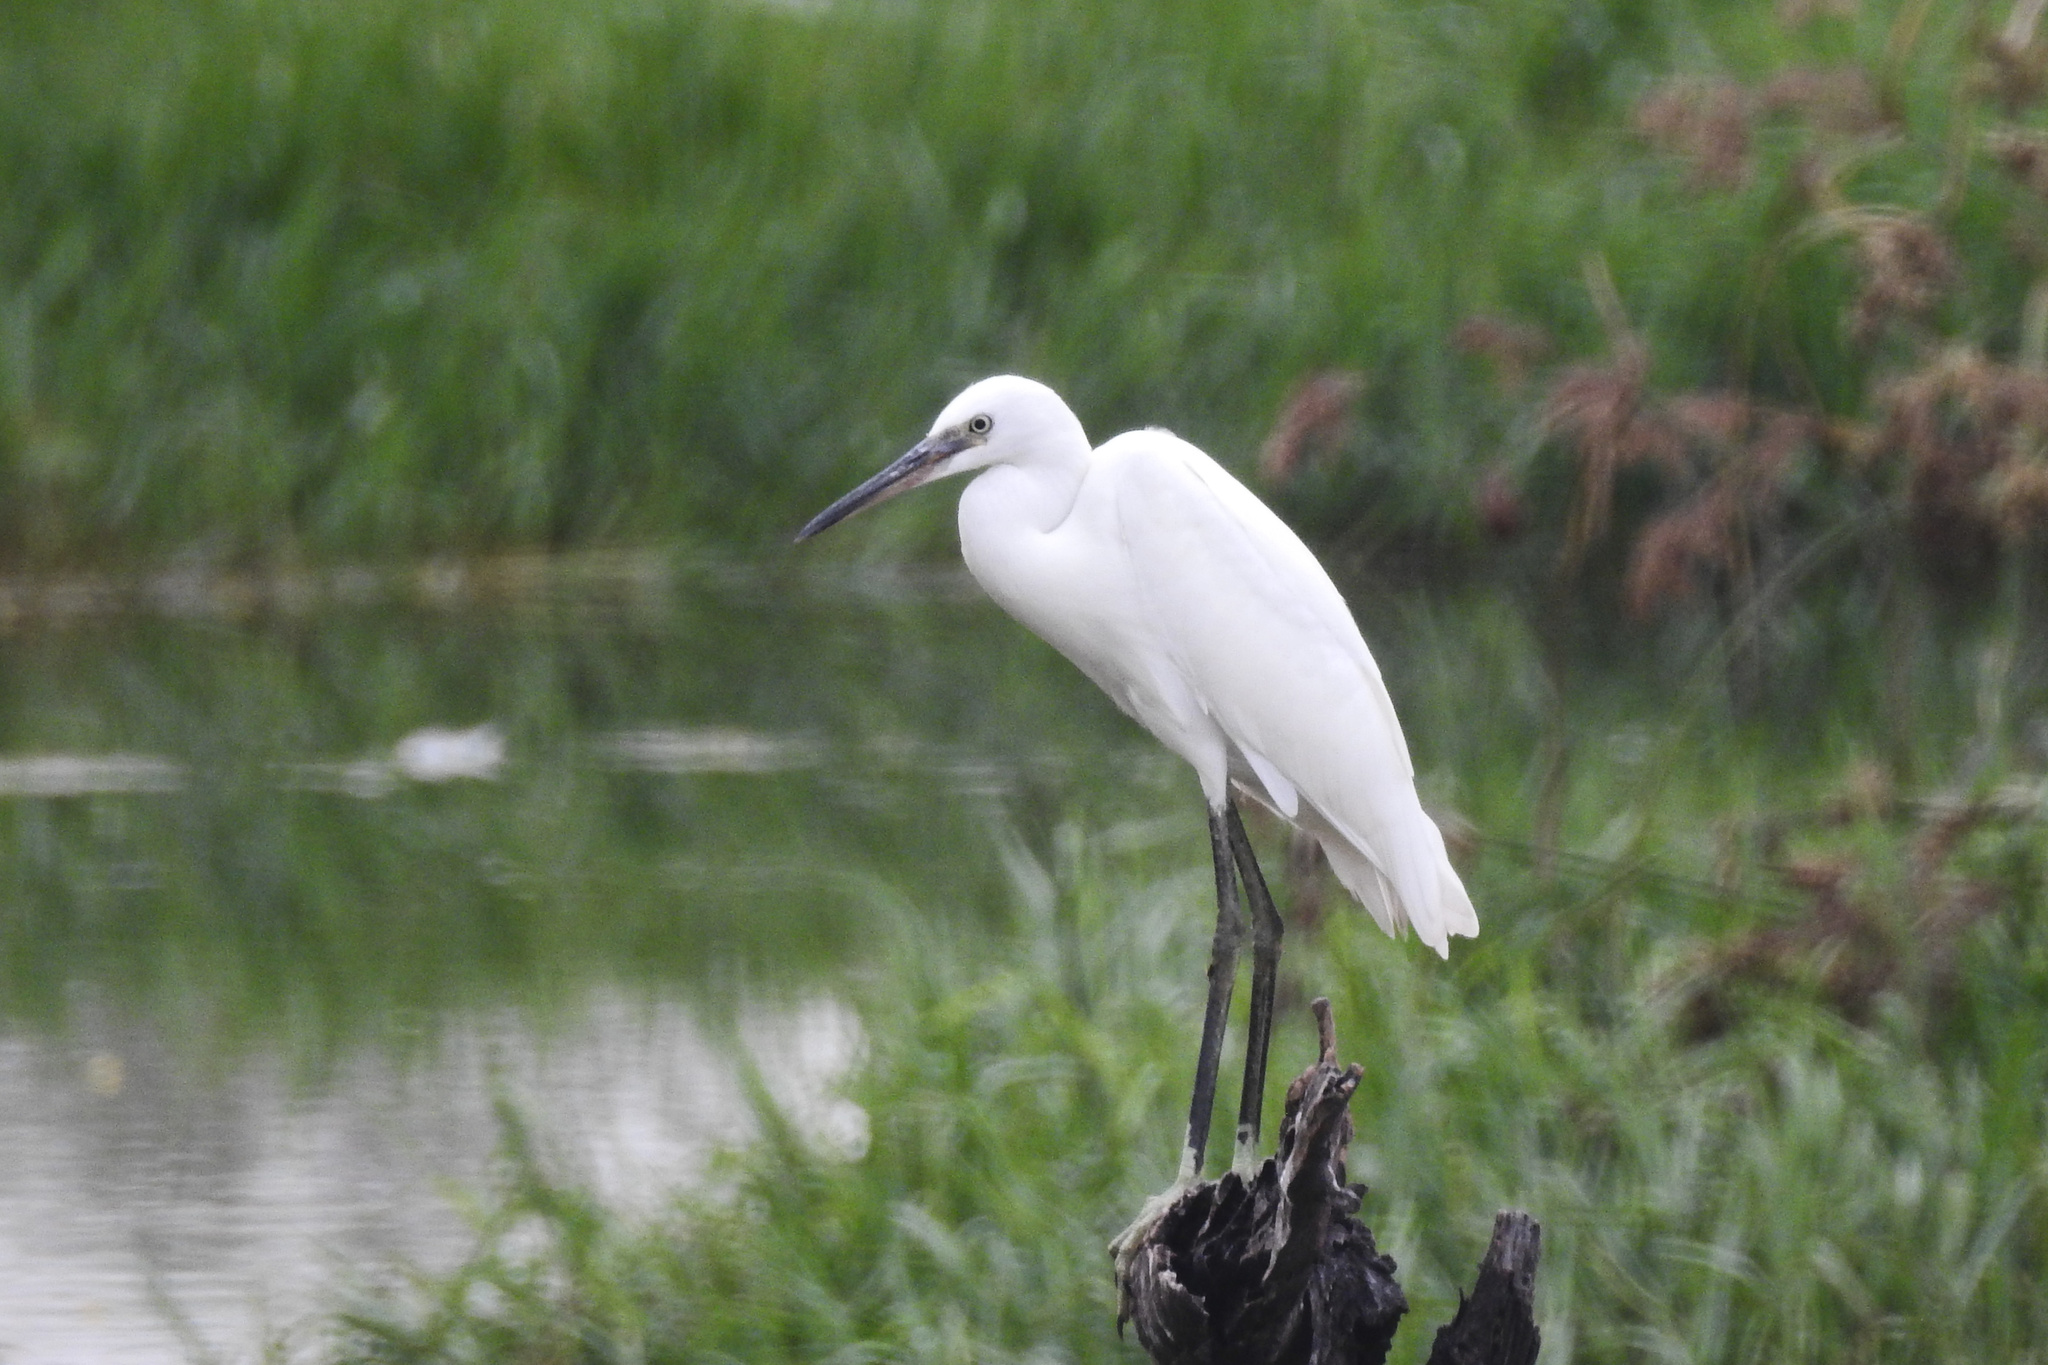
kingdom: Animalia
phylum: Chordata
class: Aves
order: Pelecaniformes
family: Ardeidae
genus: Egretta
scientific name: Egretta garzetta
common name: Little egret
